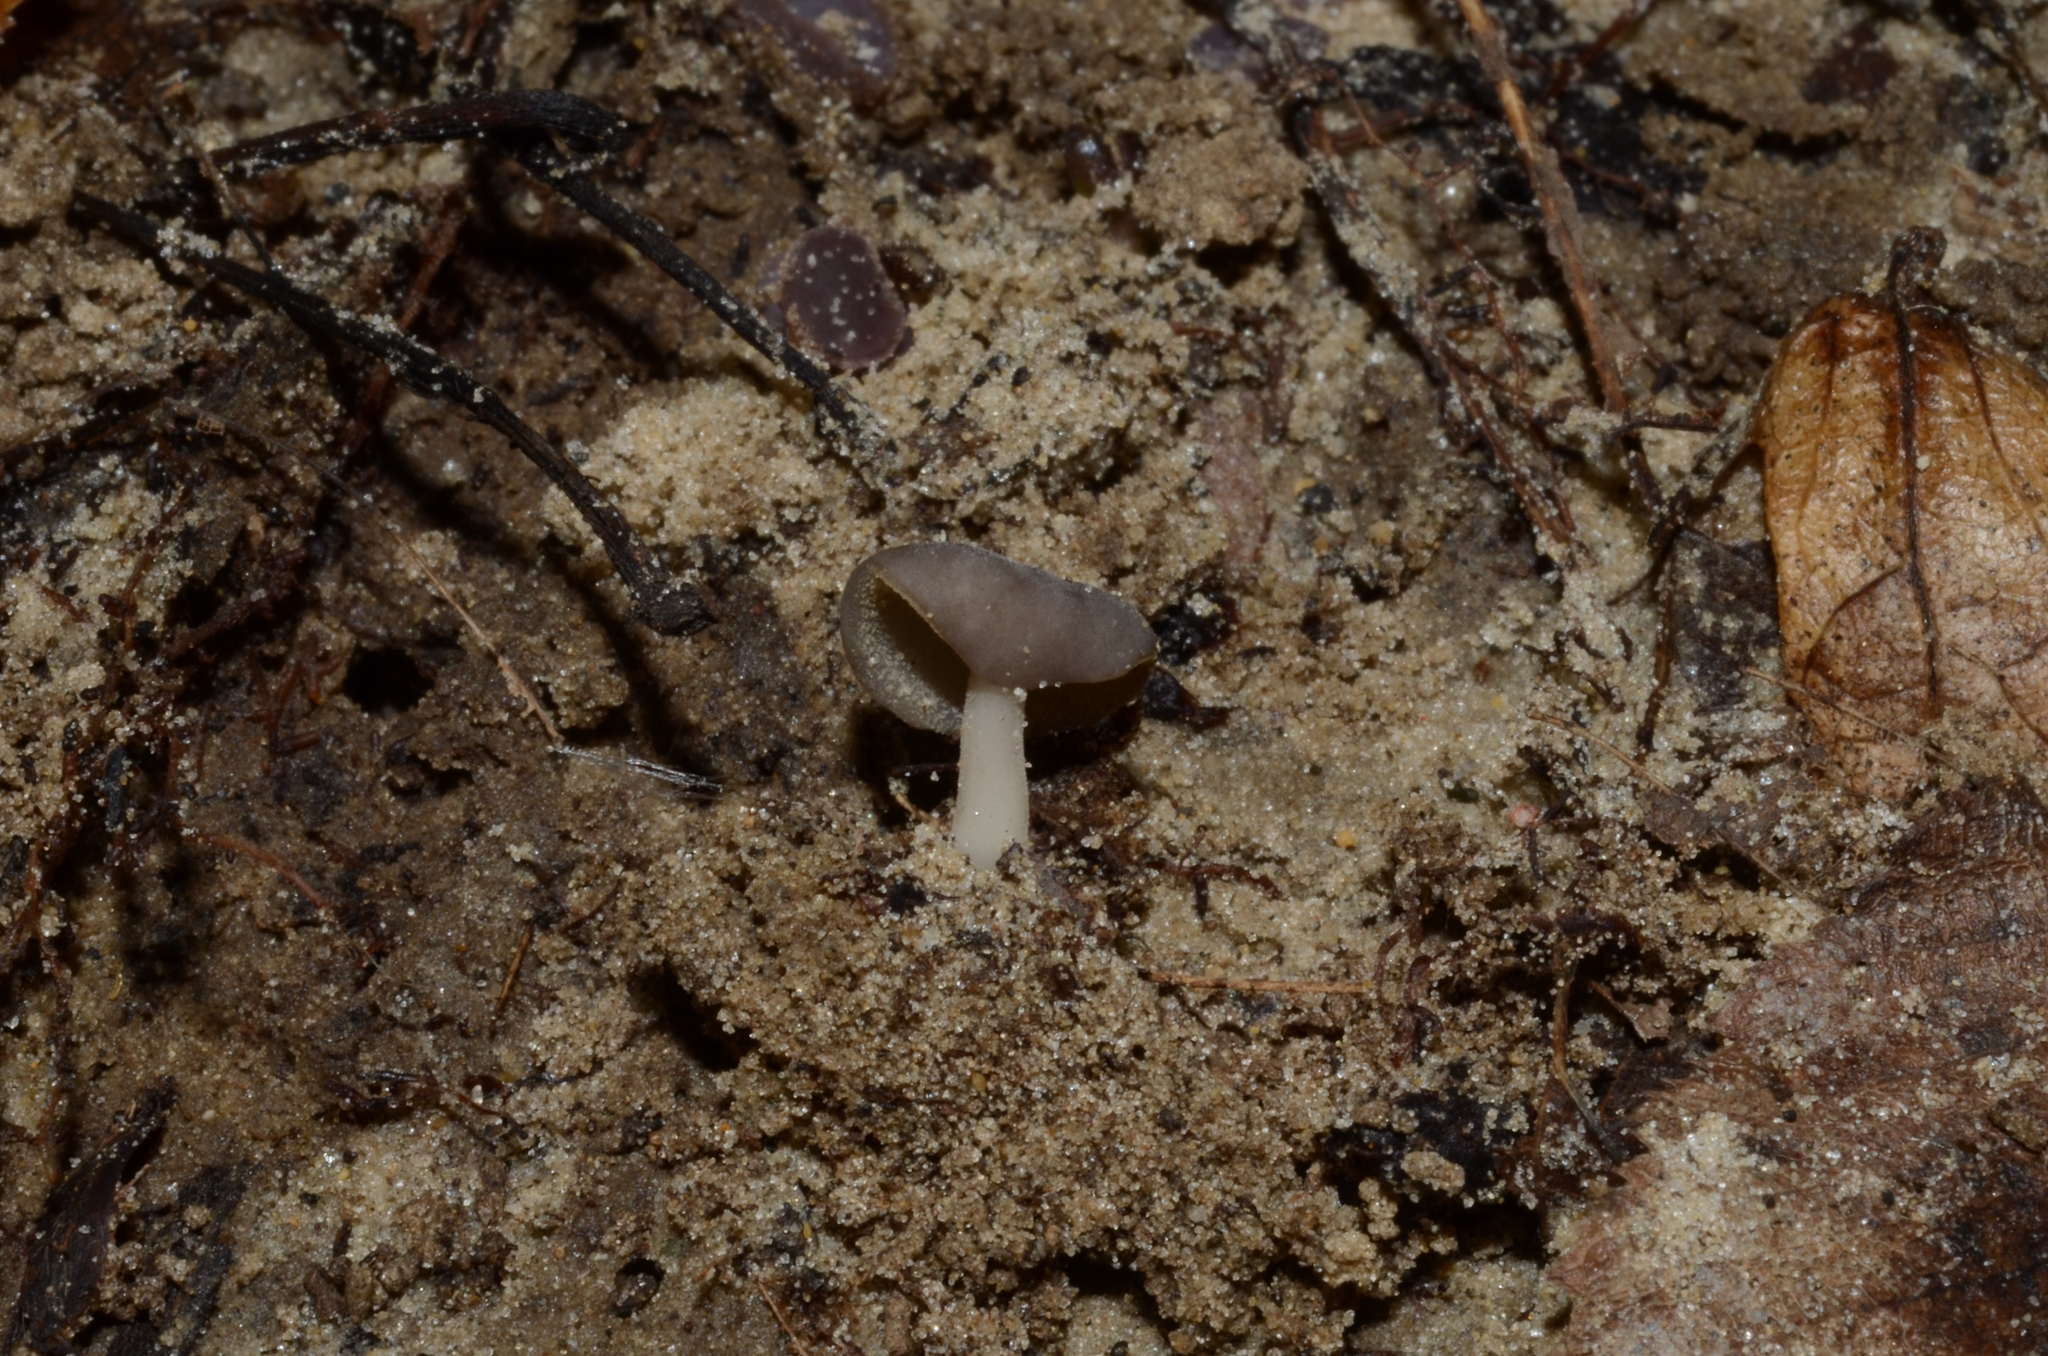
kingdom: Fungi
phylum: Ascomycota
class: Pezizomycetes
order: Pezizales
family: Helvellaceae
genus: Helvella
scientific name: Helvella branzeziana
